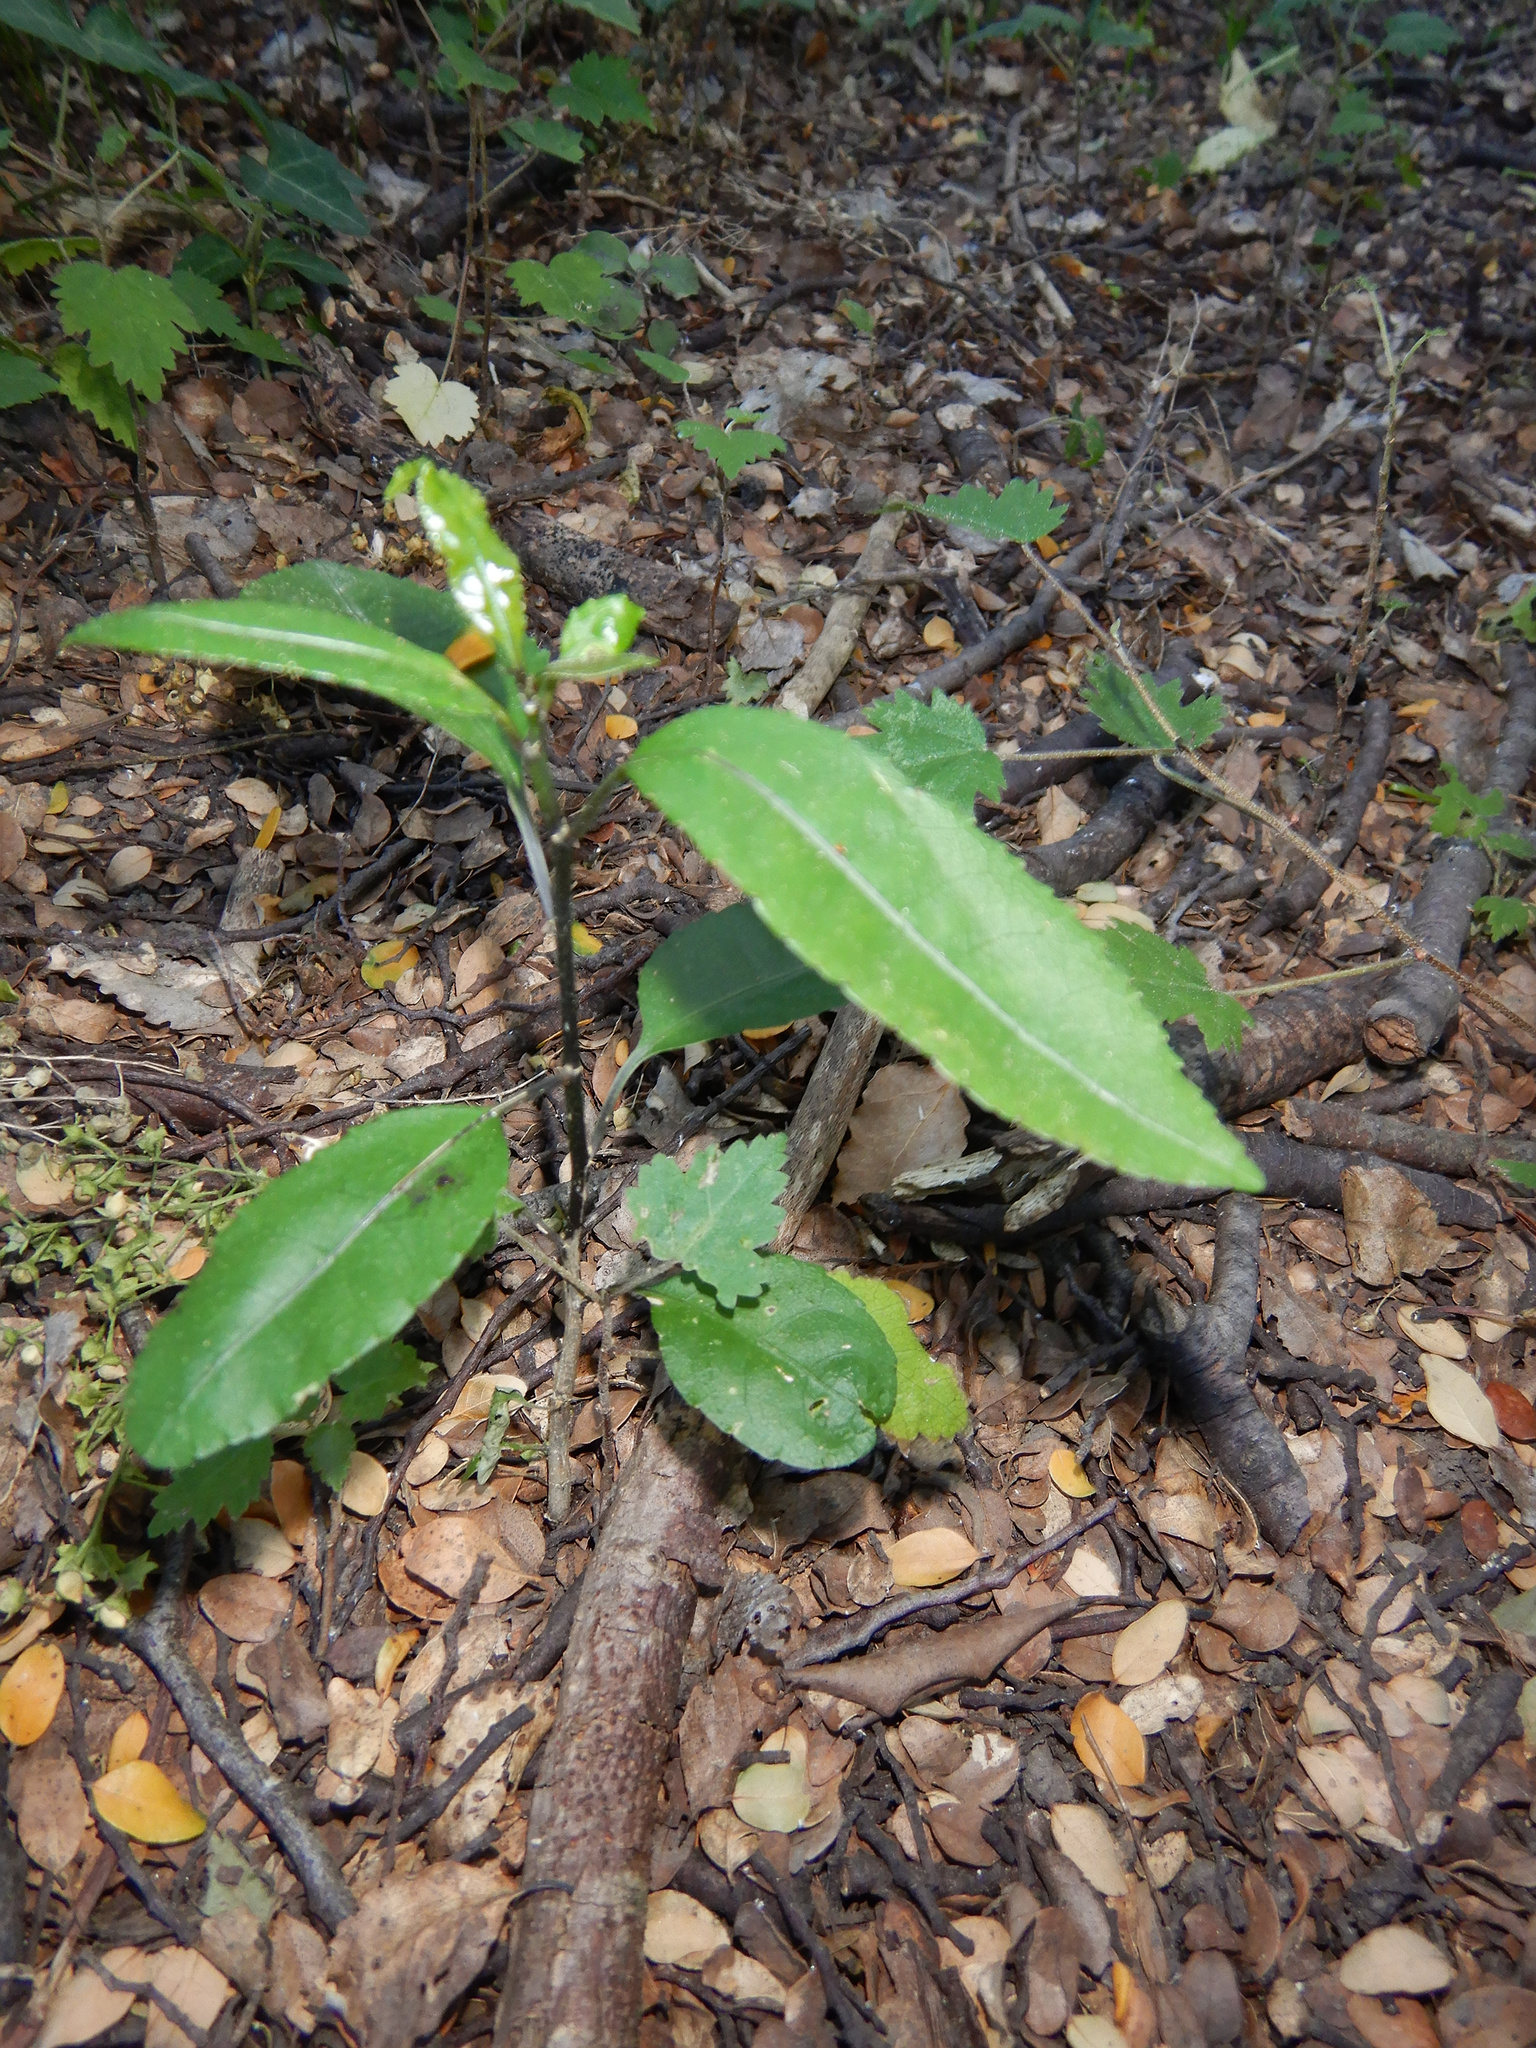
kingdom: Plantae
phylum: Tracheophyta
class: Magnoliopsida
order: Malpighiales
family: Violaceae
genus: Melicytus
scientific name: Melicytus ramiflorus
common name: Mahoe
